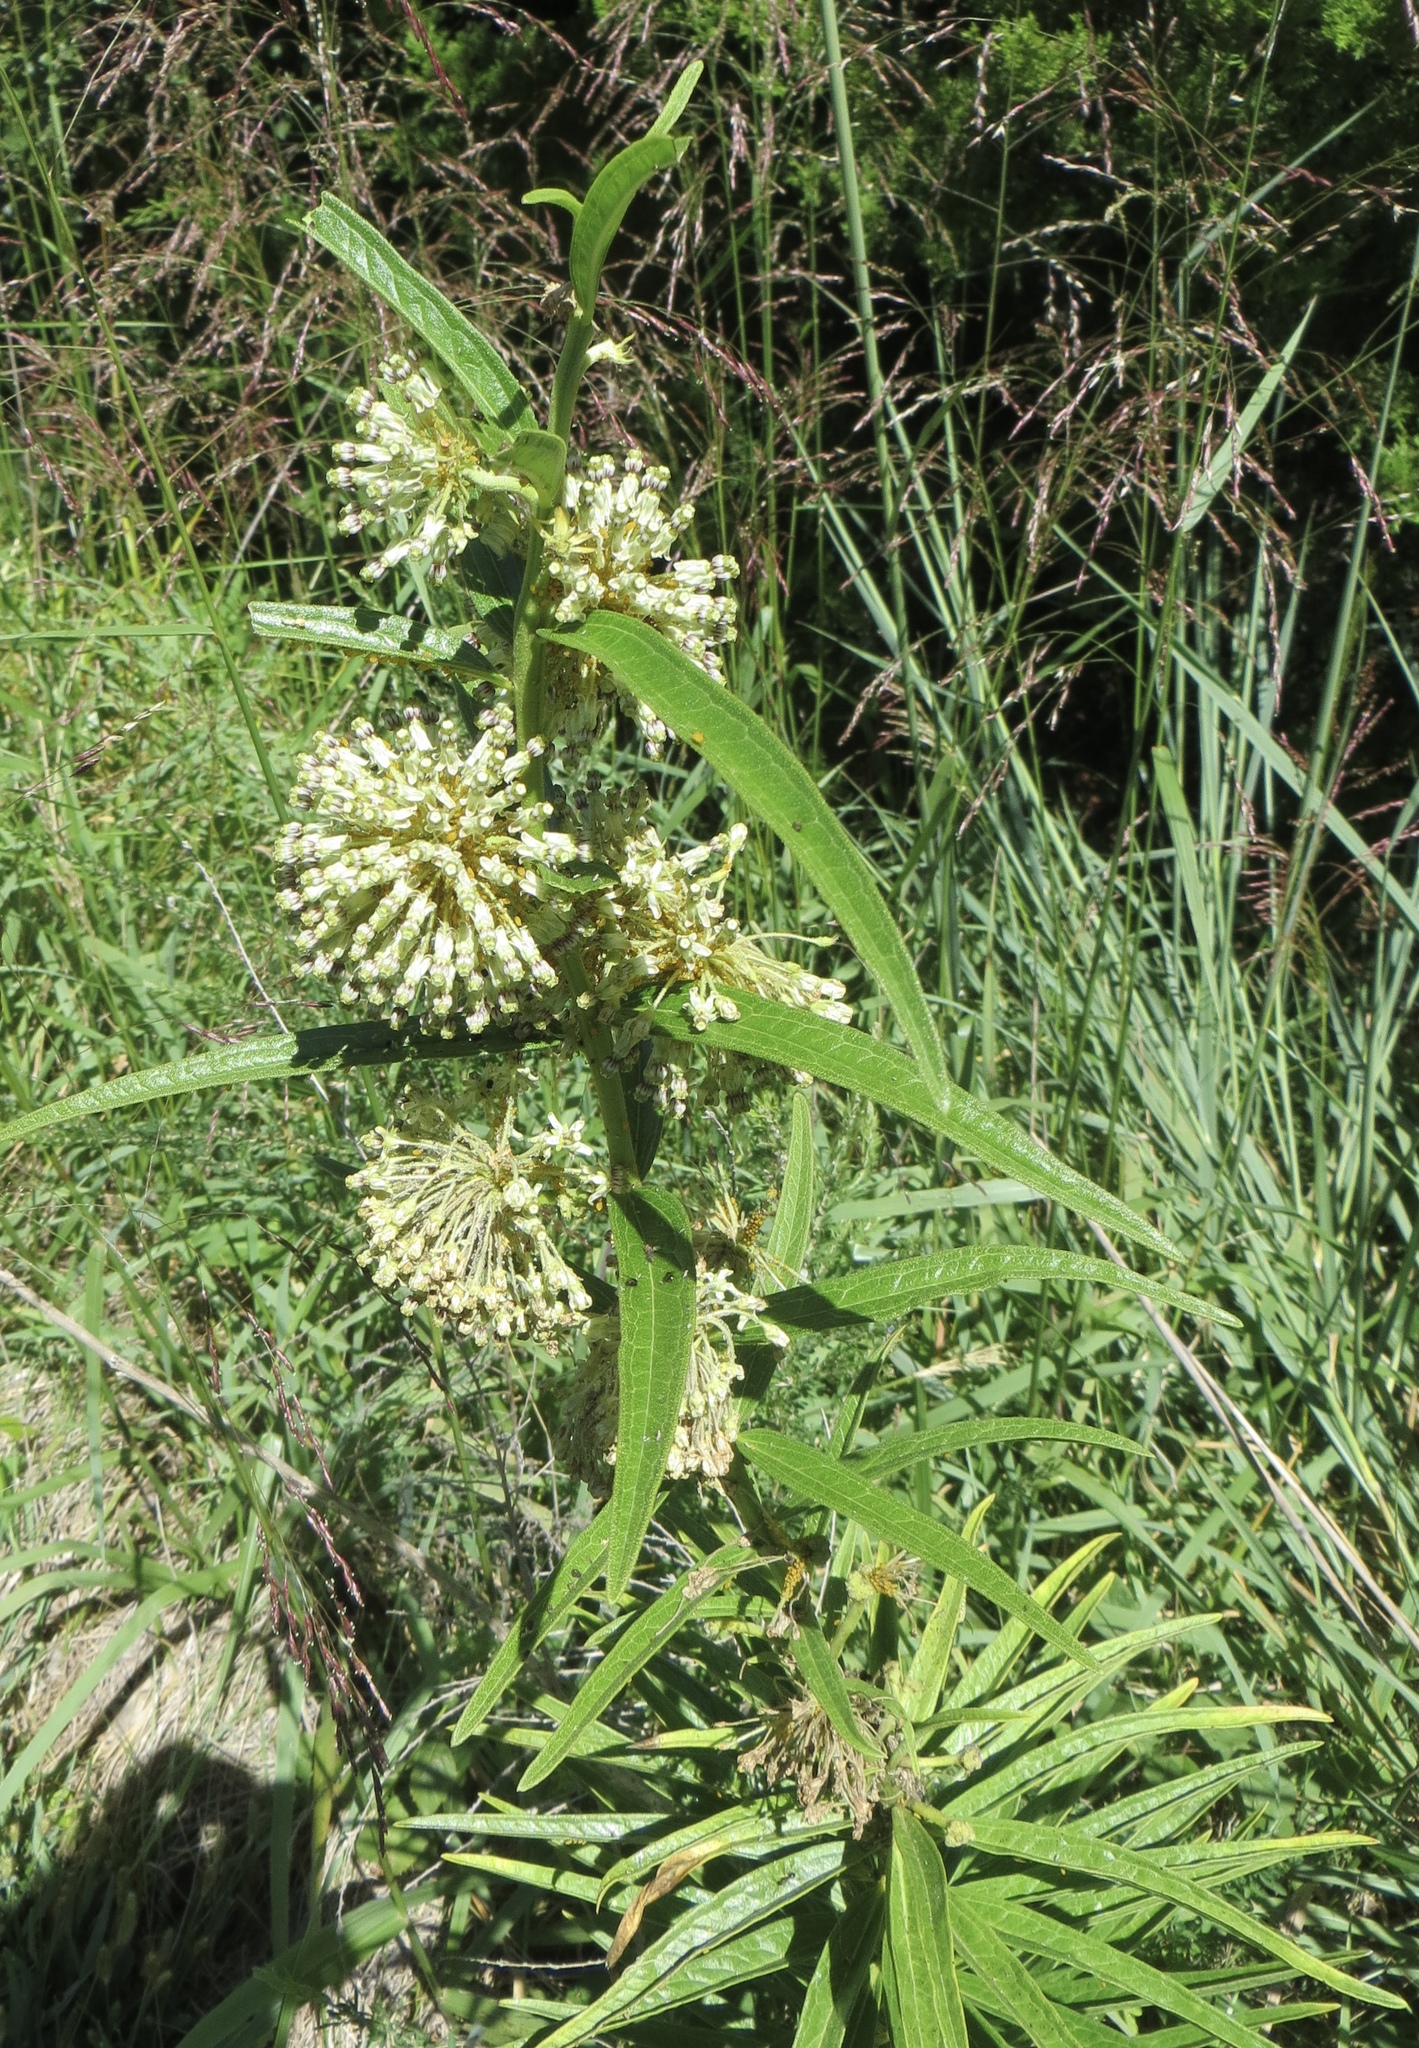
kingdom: Plantae
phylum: Tracheophyta
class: Magnoliopsida
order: Gentianales
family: Apocynaceae
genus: Asclepias
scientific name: Asclepias hirtella
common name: Prairie milkweed
